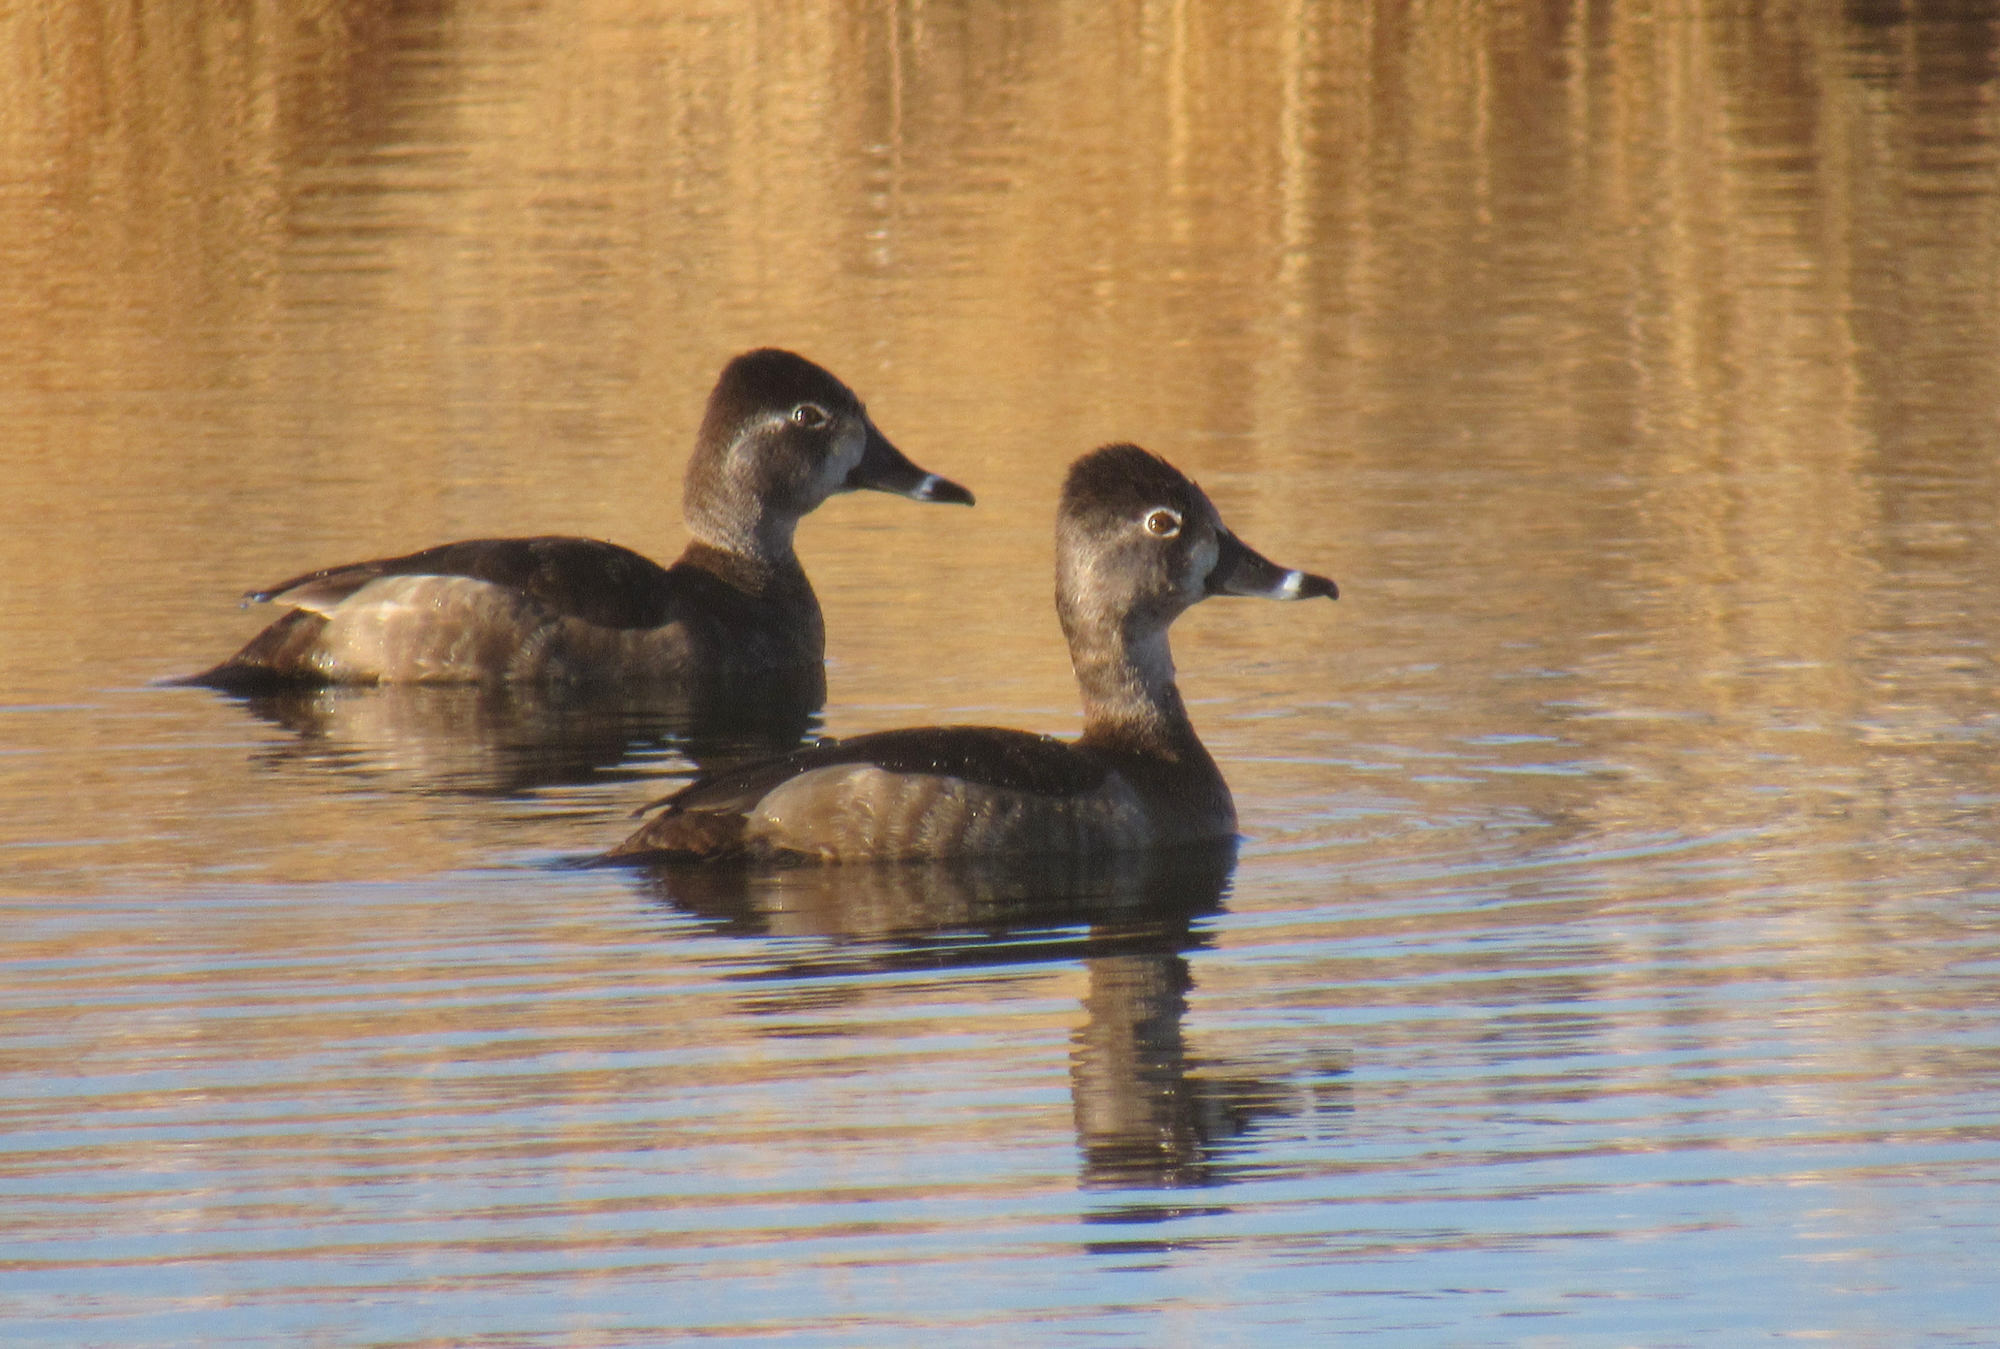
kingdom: Animalia
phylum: Chordata
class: Aves
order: Anseriformes
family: Anatidae
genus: Aythya
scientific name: Aythya collaris
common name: Ring-necked duck
